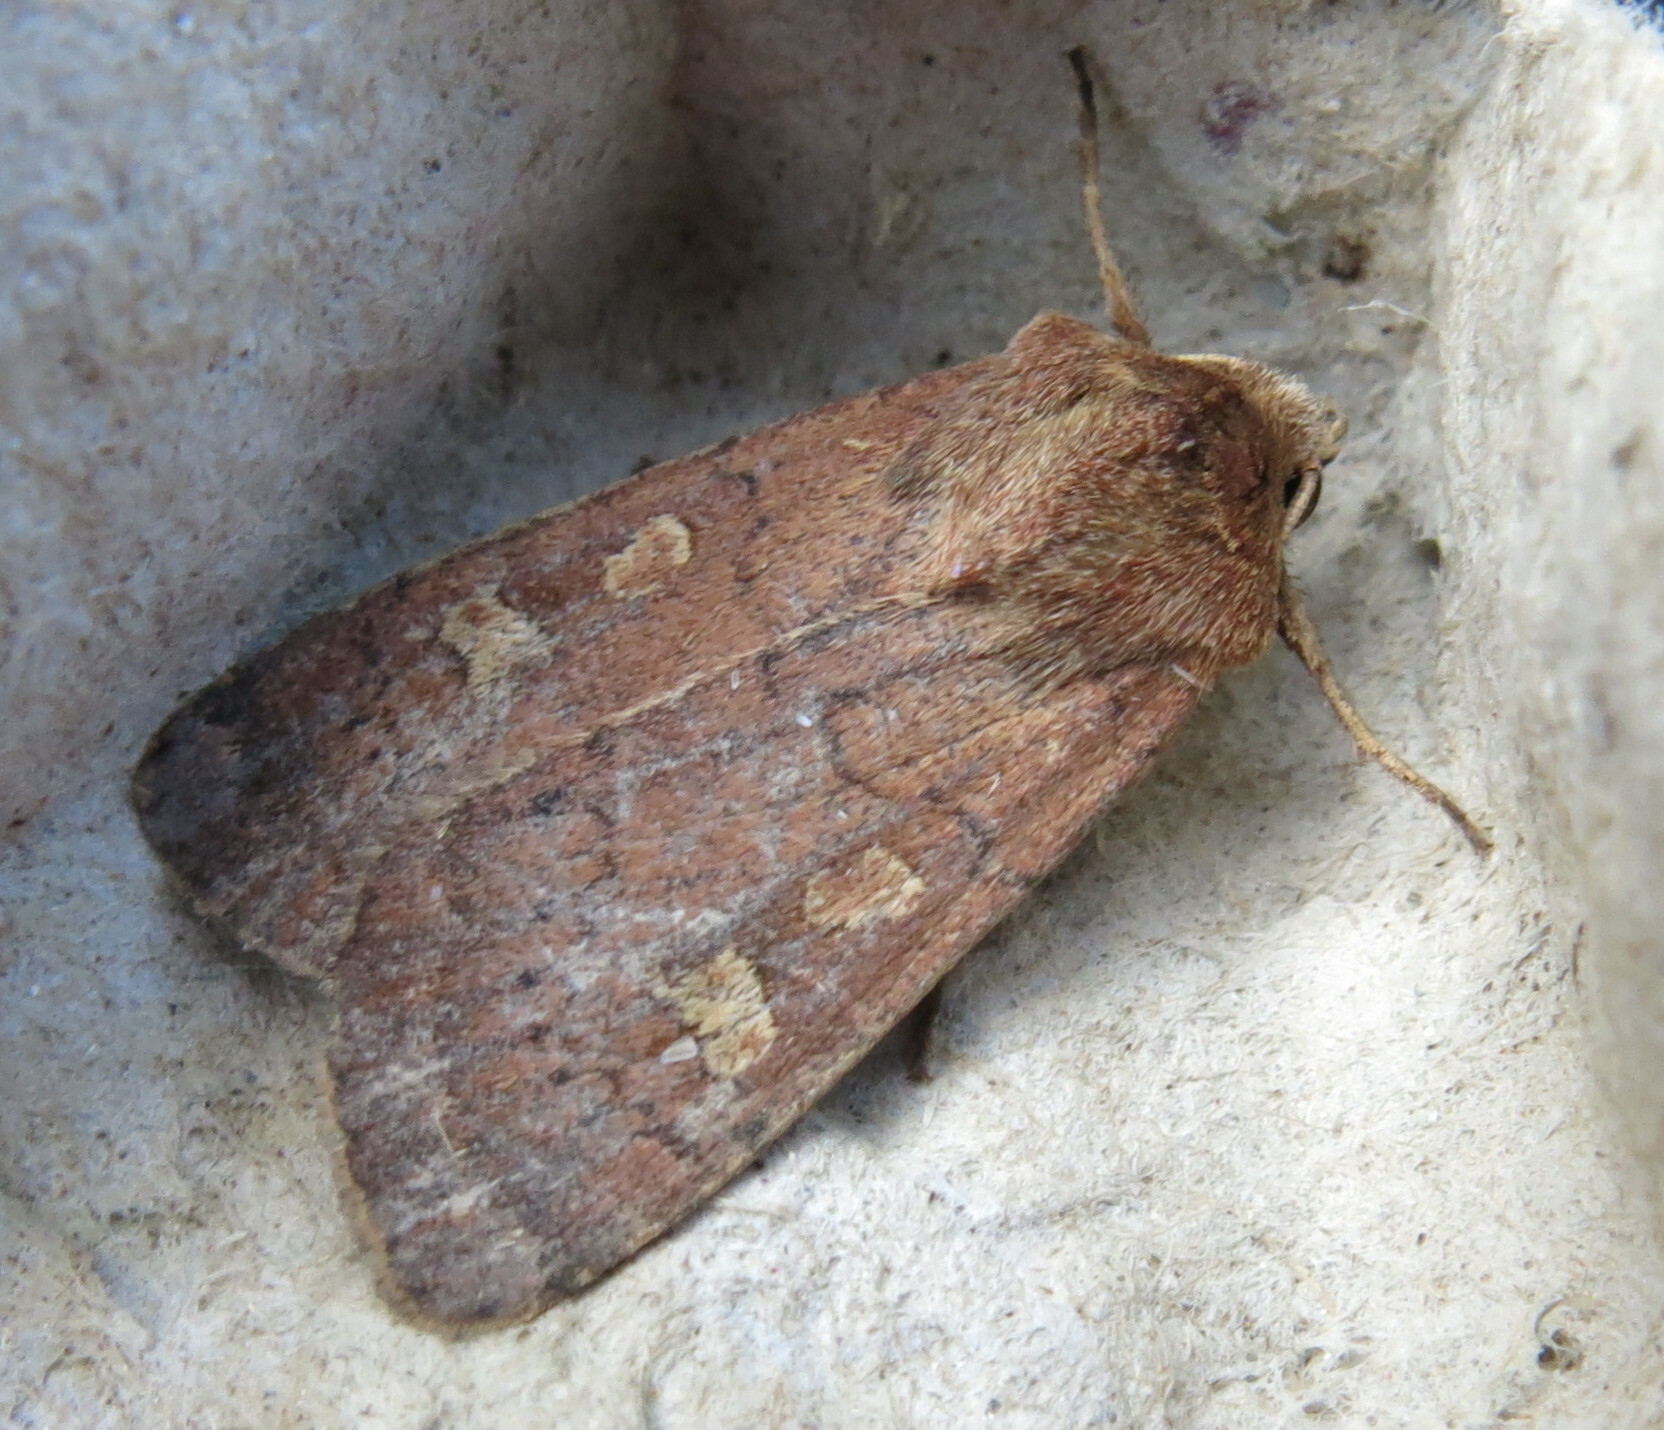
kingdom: Animalia
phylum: Arthropoda
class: Insecta
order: Lepidoptera
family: Noctuidae
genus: Xestia
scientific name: Xestia xanthographa
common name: Square-spot rustic
